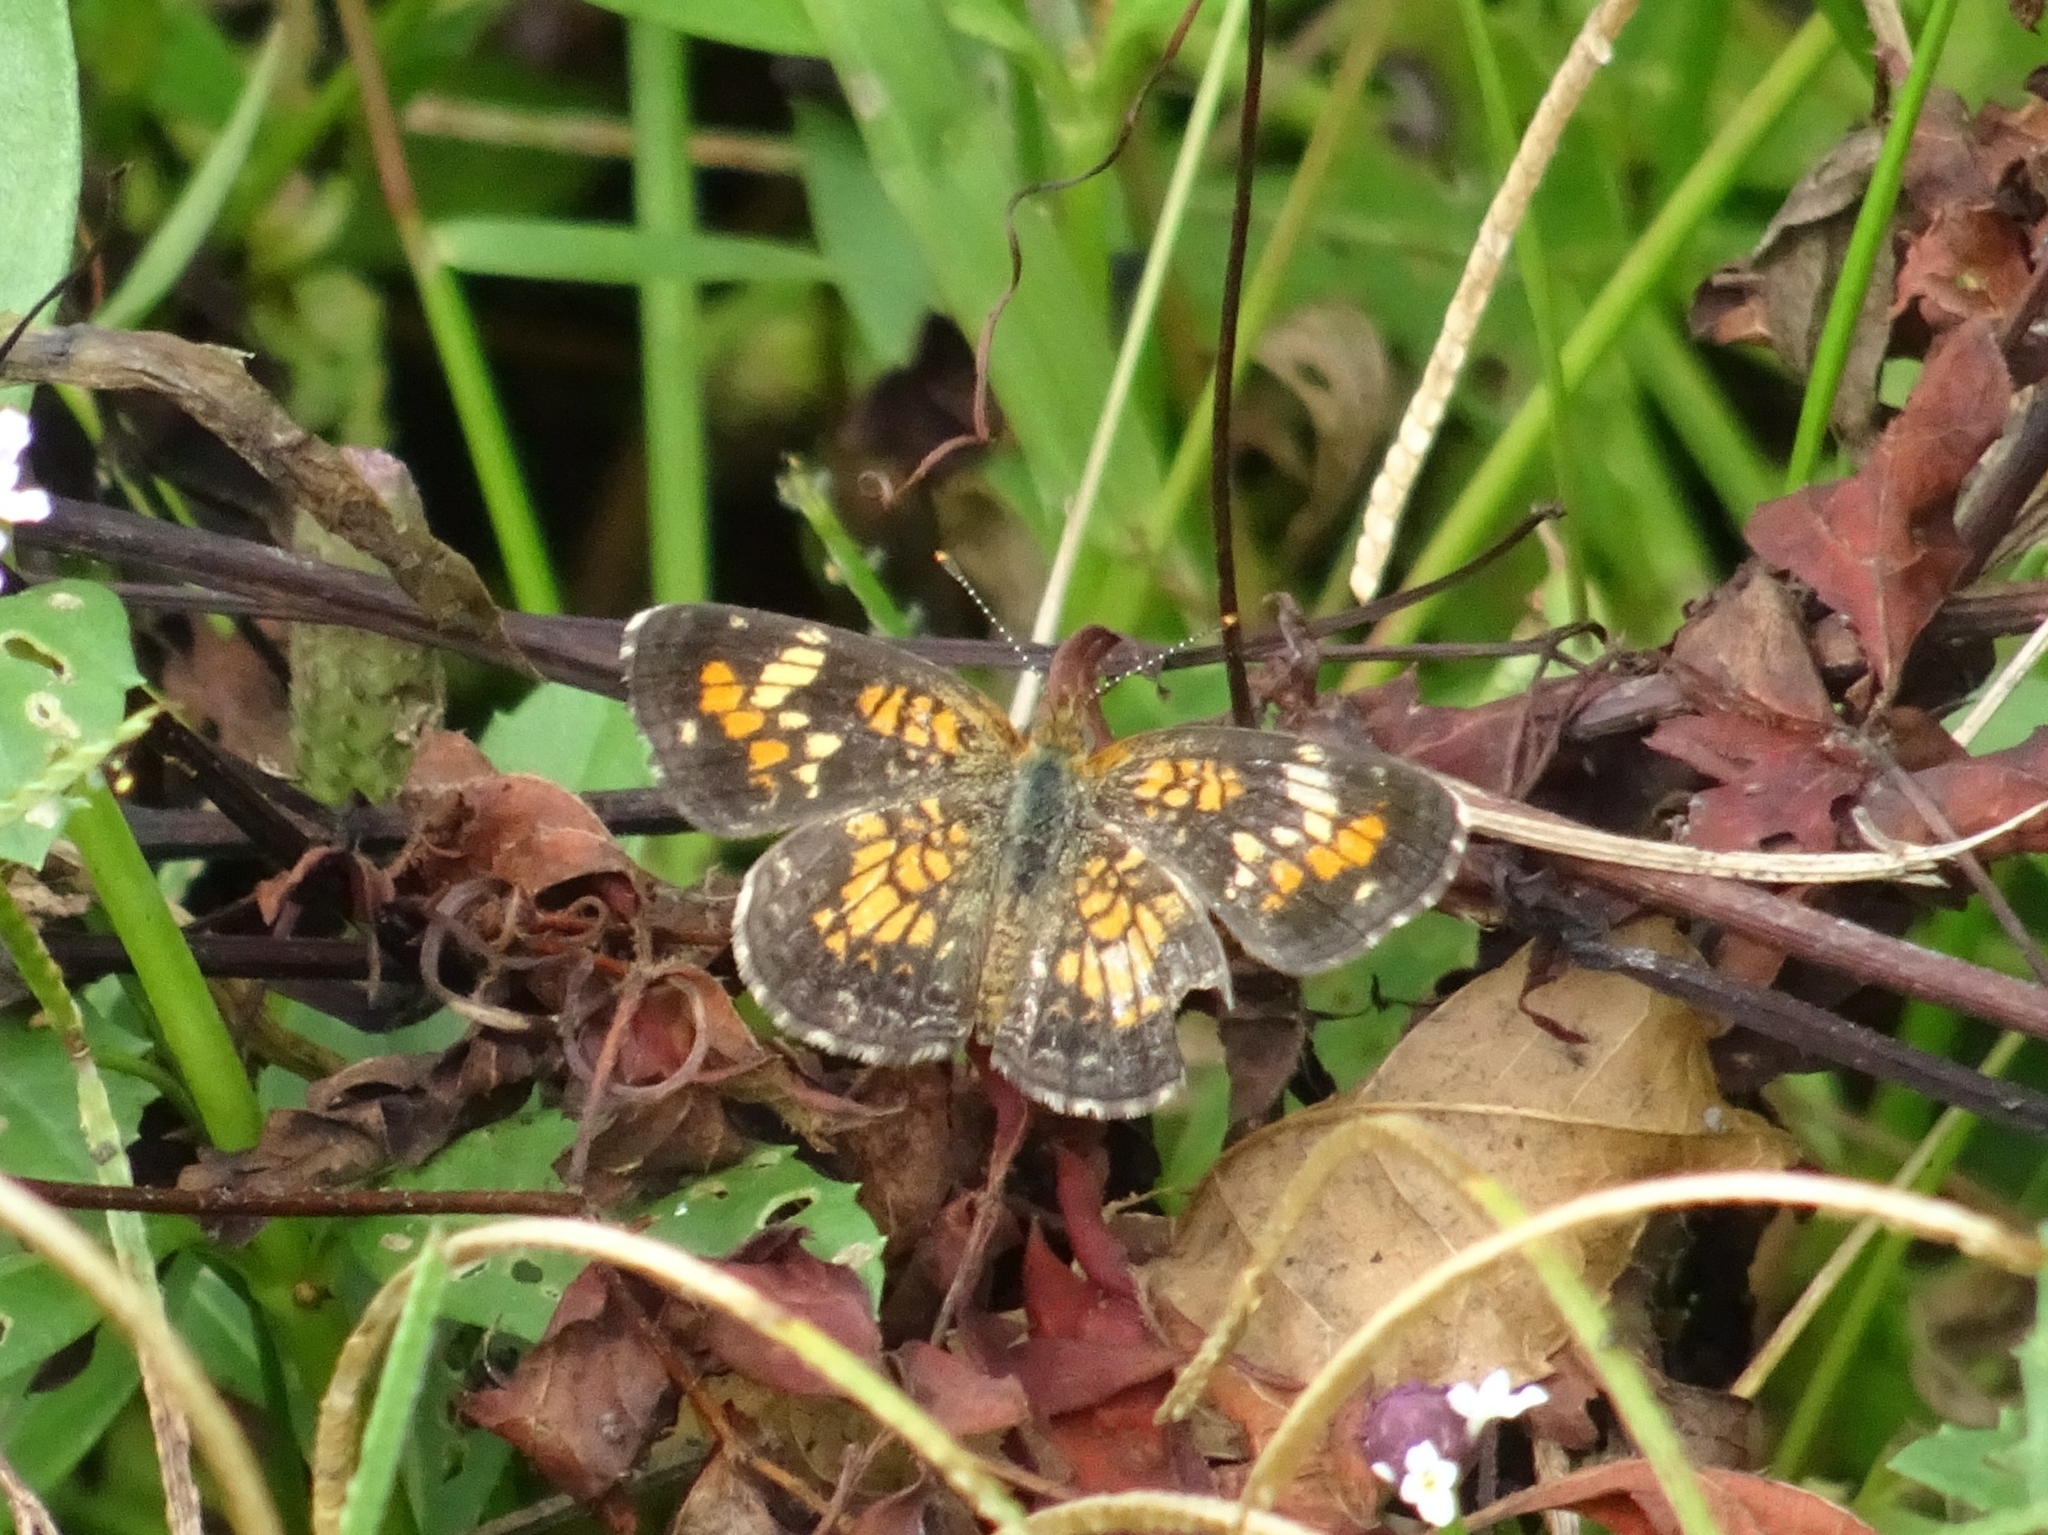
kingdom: Animalia
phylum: Arthropoda
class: Insecta
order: Lepidoptera
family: Nymphalidae
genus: Phyciodes
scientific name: Phyciodes phaon
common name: Phaon crescent
